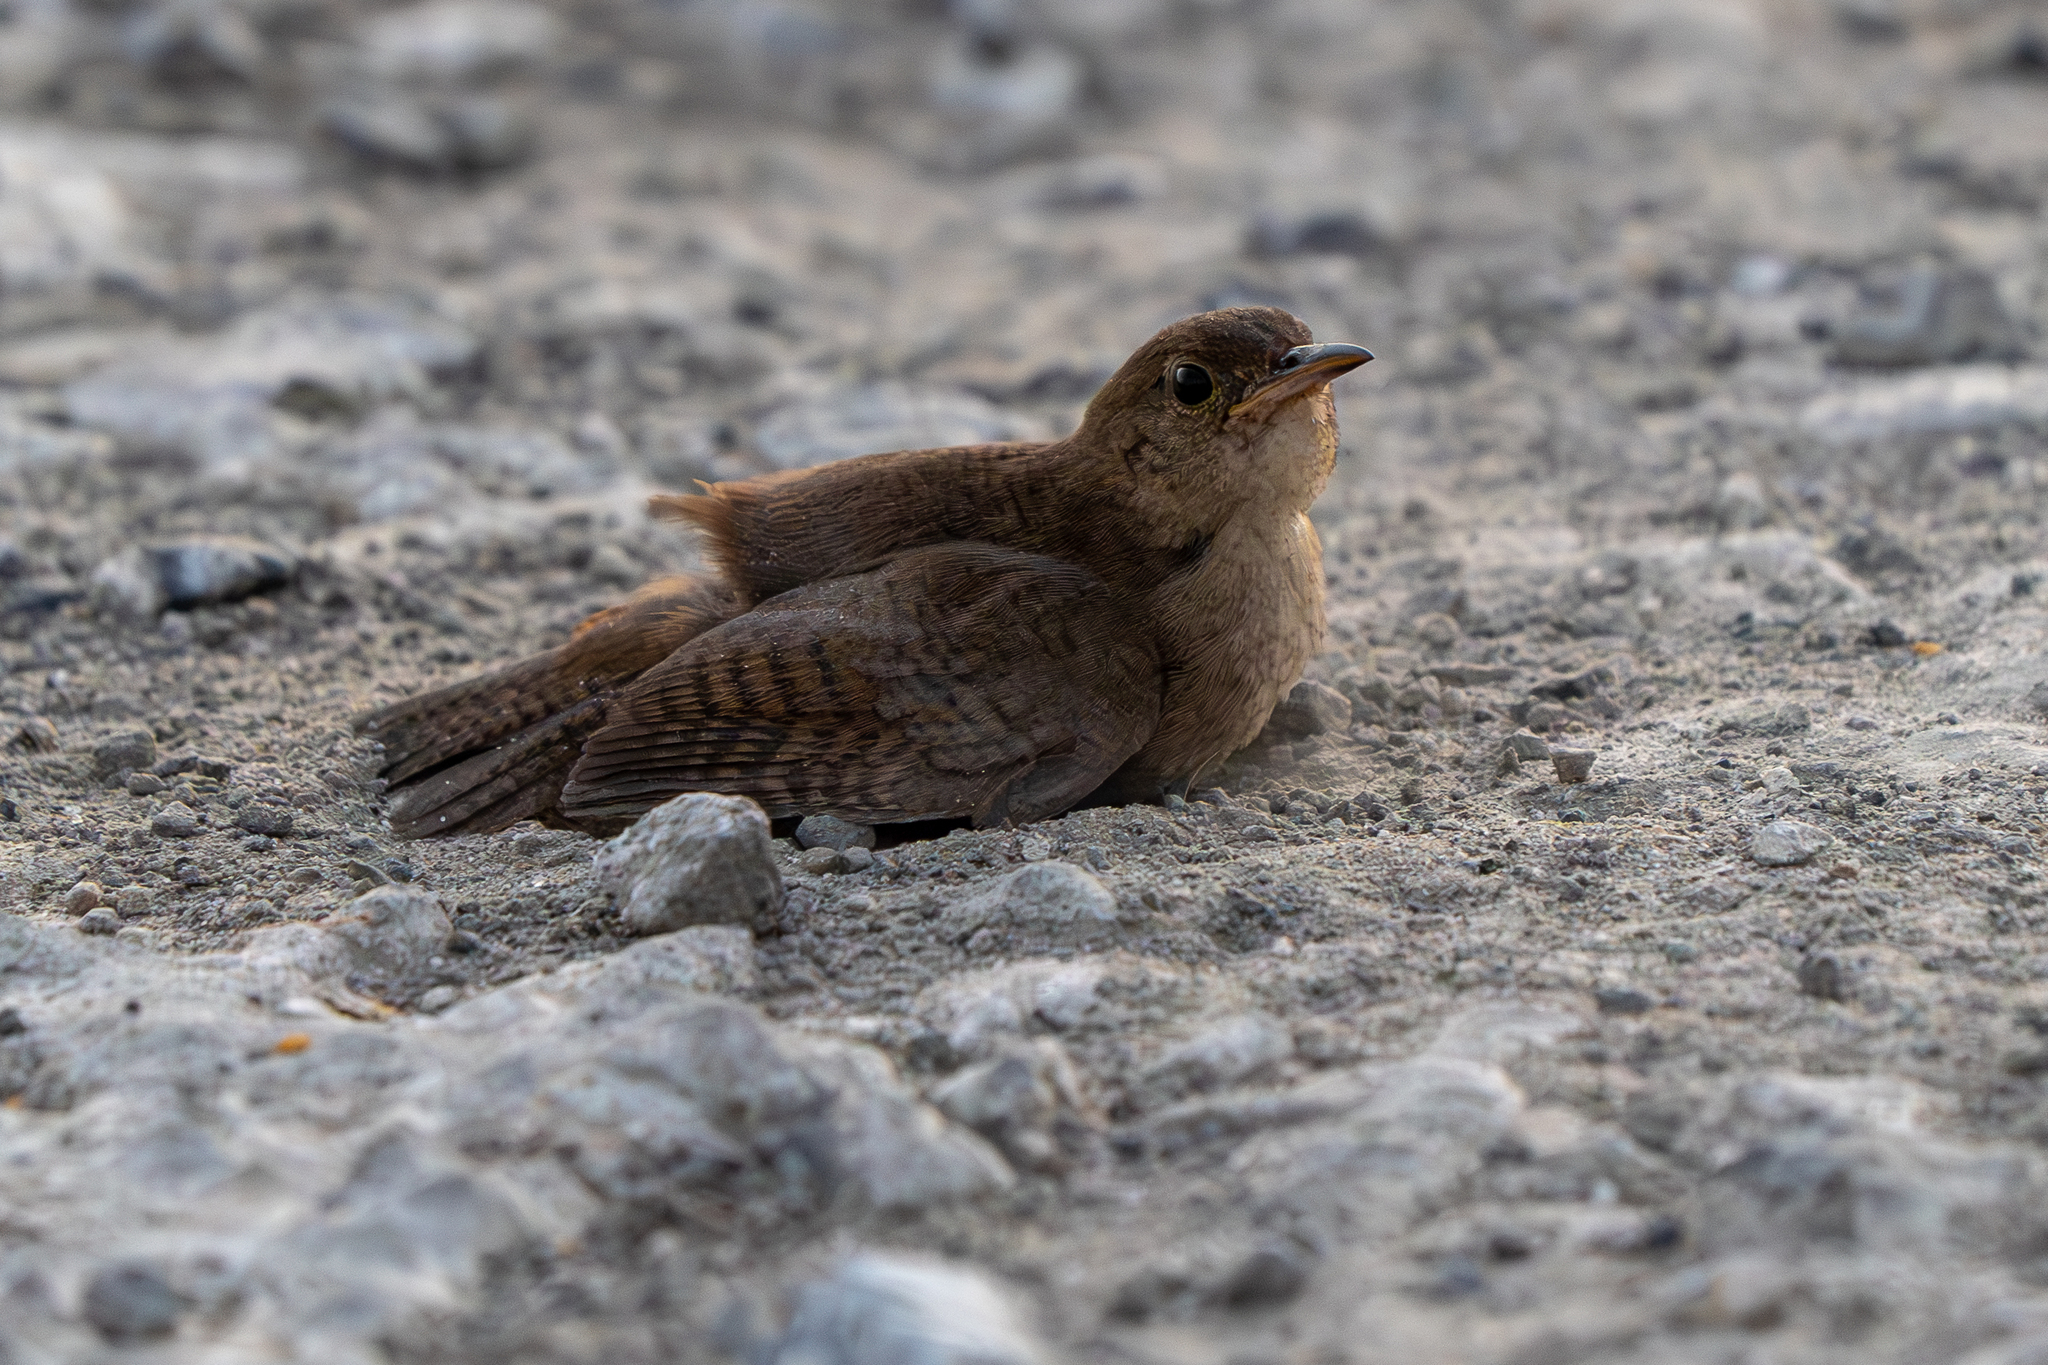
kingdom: Animalia
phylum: Chordata
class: Aves
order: Passeriformes
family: Troglodytidae
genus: Troglodytes
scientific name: Troglodytes aedon
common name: House wren
